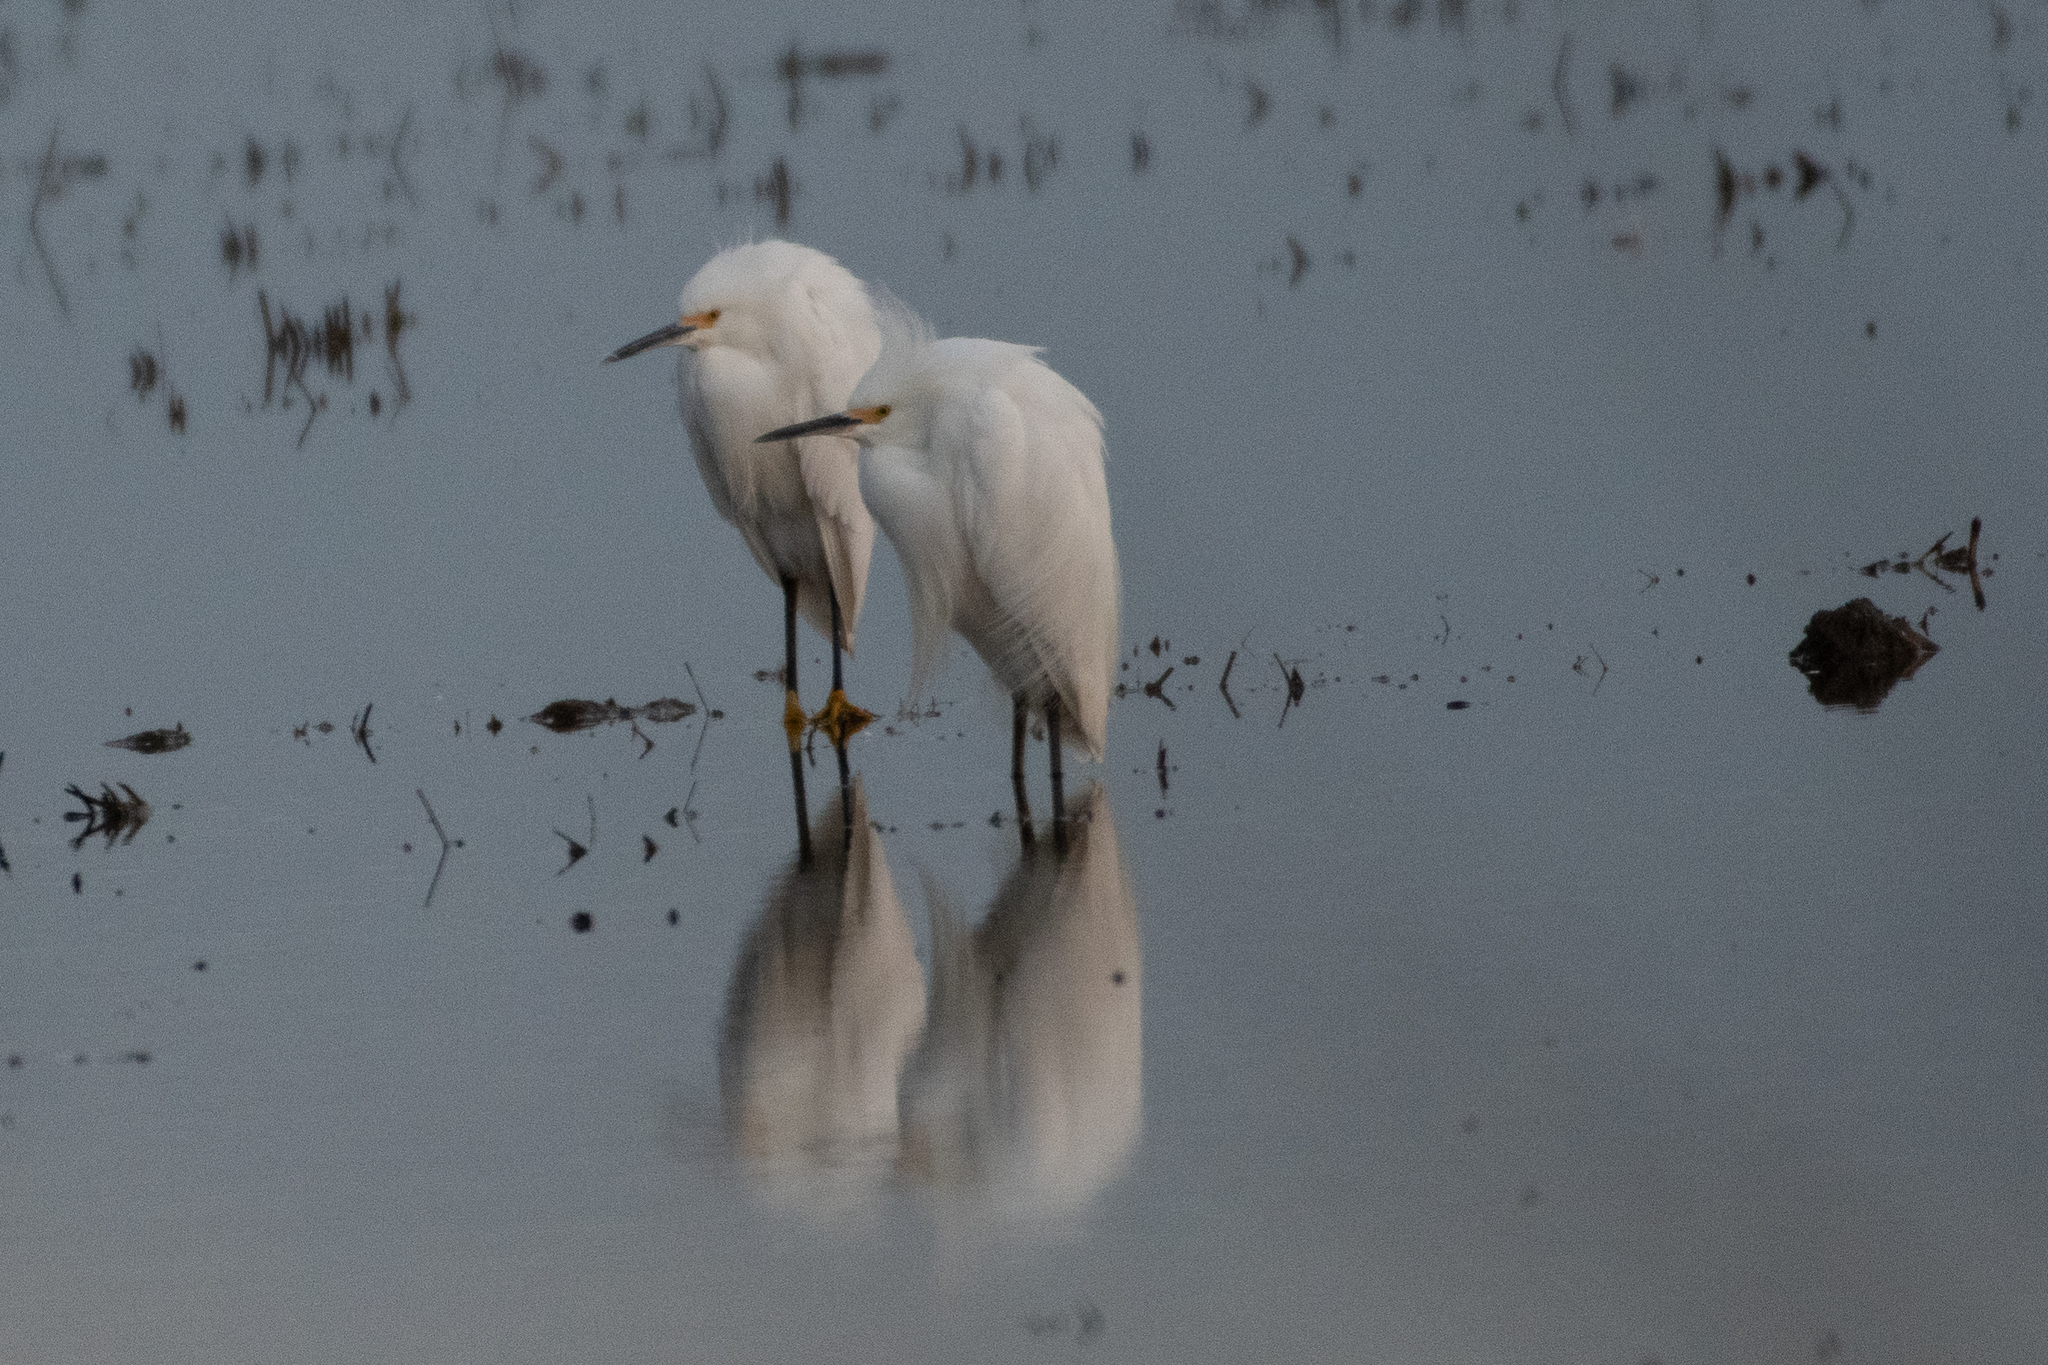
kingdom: Animalia
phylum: Chordata
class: Aves
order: Pelecaniformes
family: Ardeidae
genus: Egretta
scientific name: Egretta thula
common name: Snowy egret
